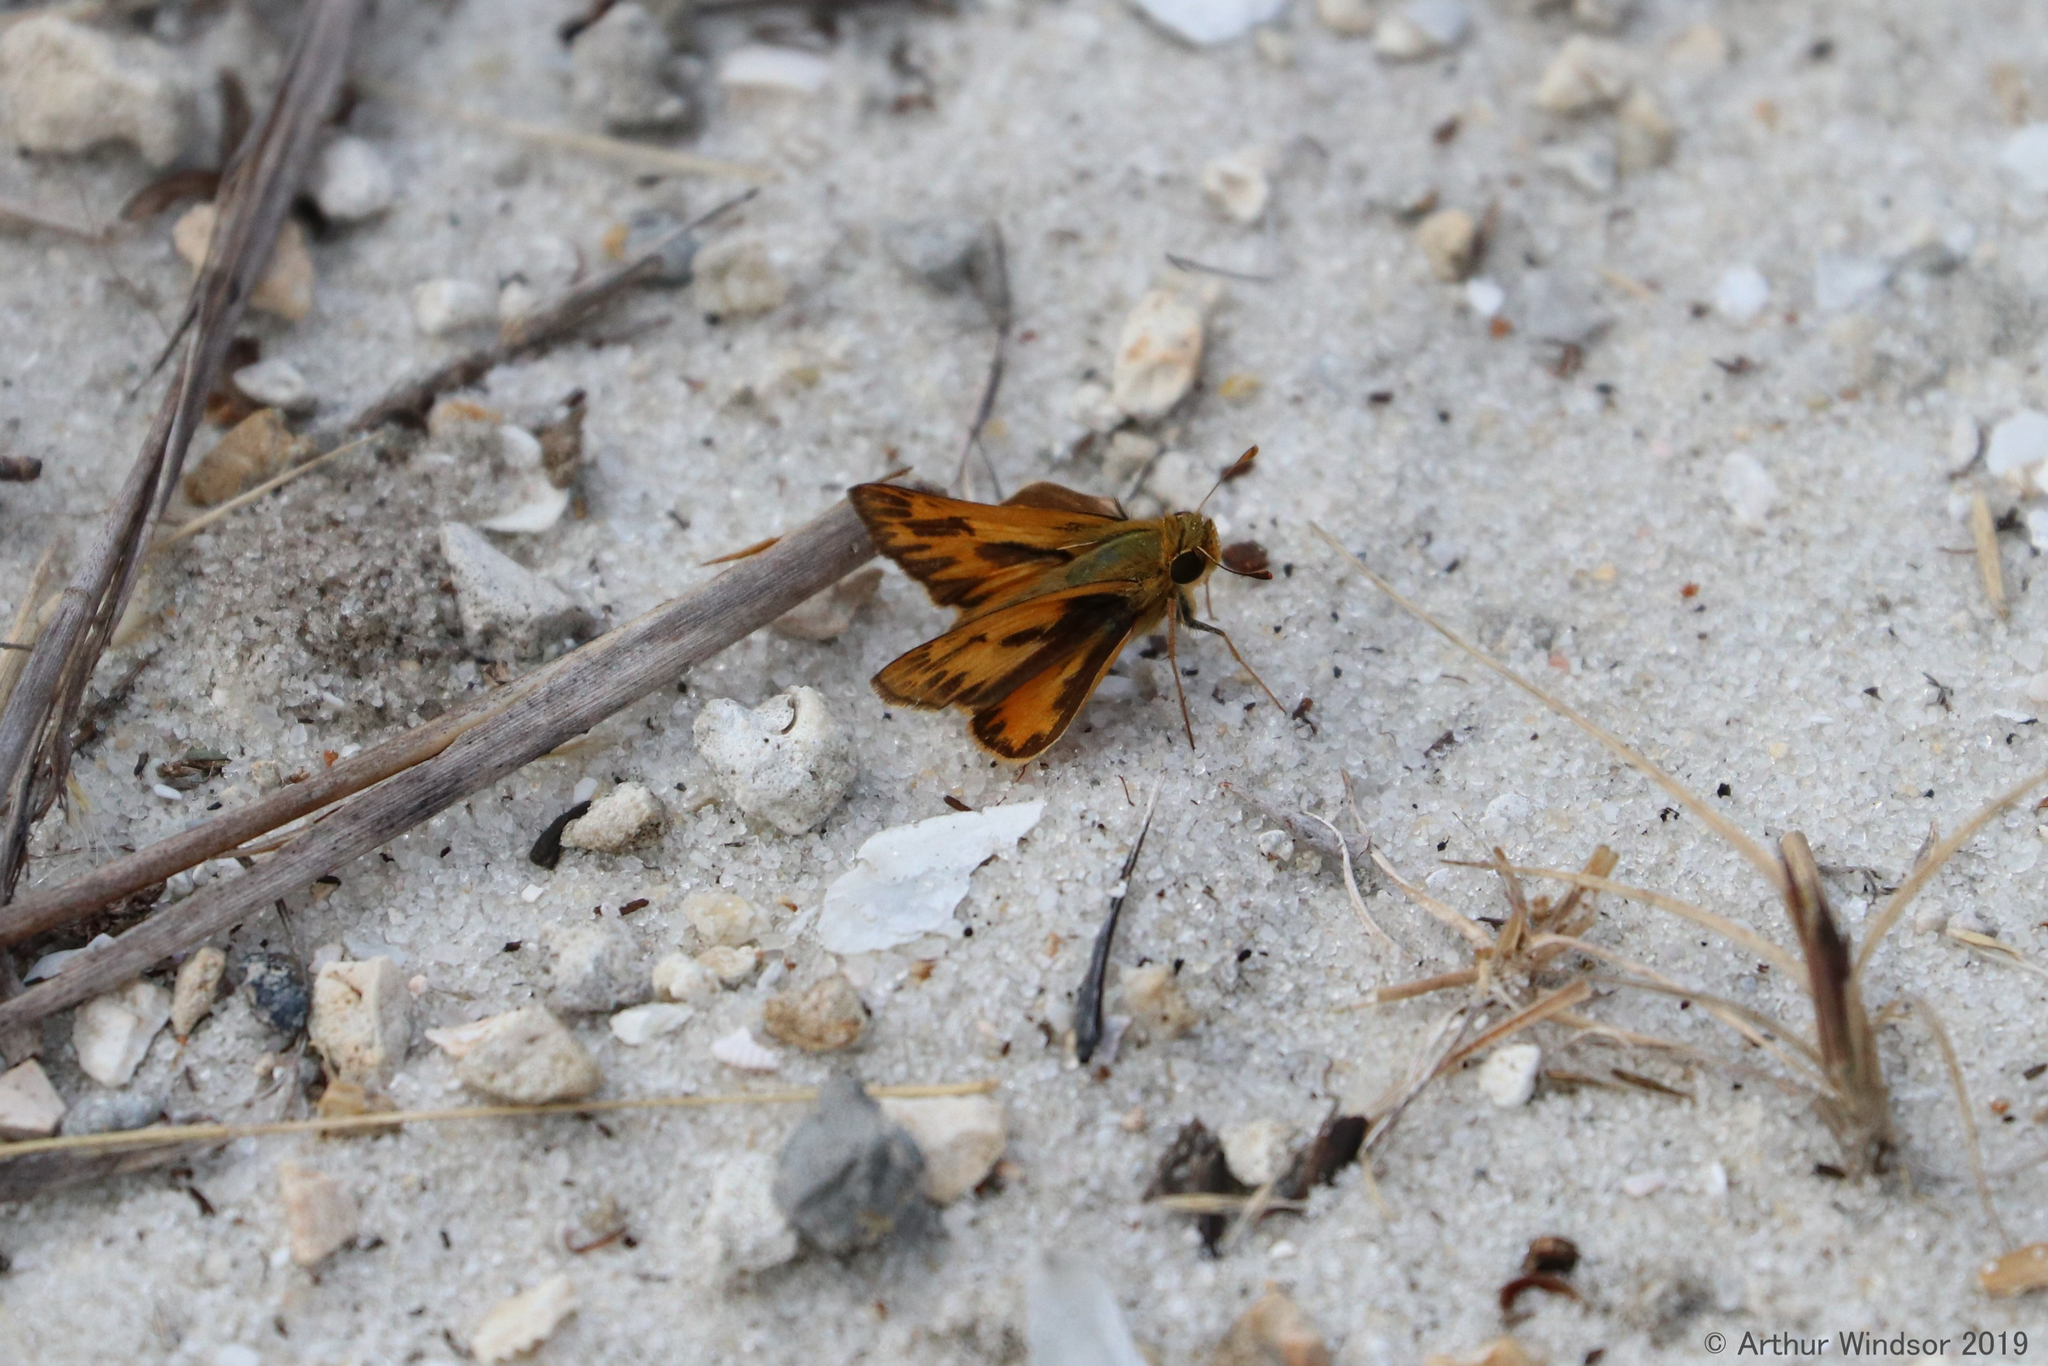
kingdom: Animalia
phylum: Arthropoda
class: Insecta
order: Lepidoptera
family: Hesperiidae
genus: Hylephila
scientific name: Hylephila phyleus
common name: Fiery skipper
